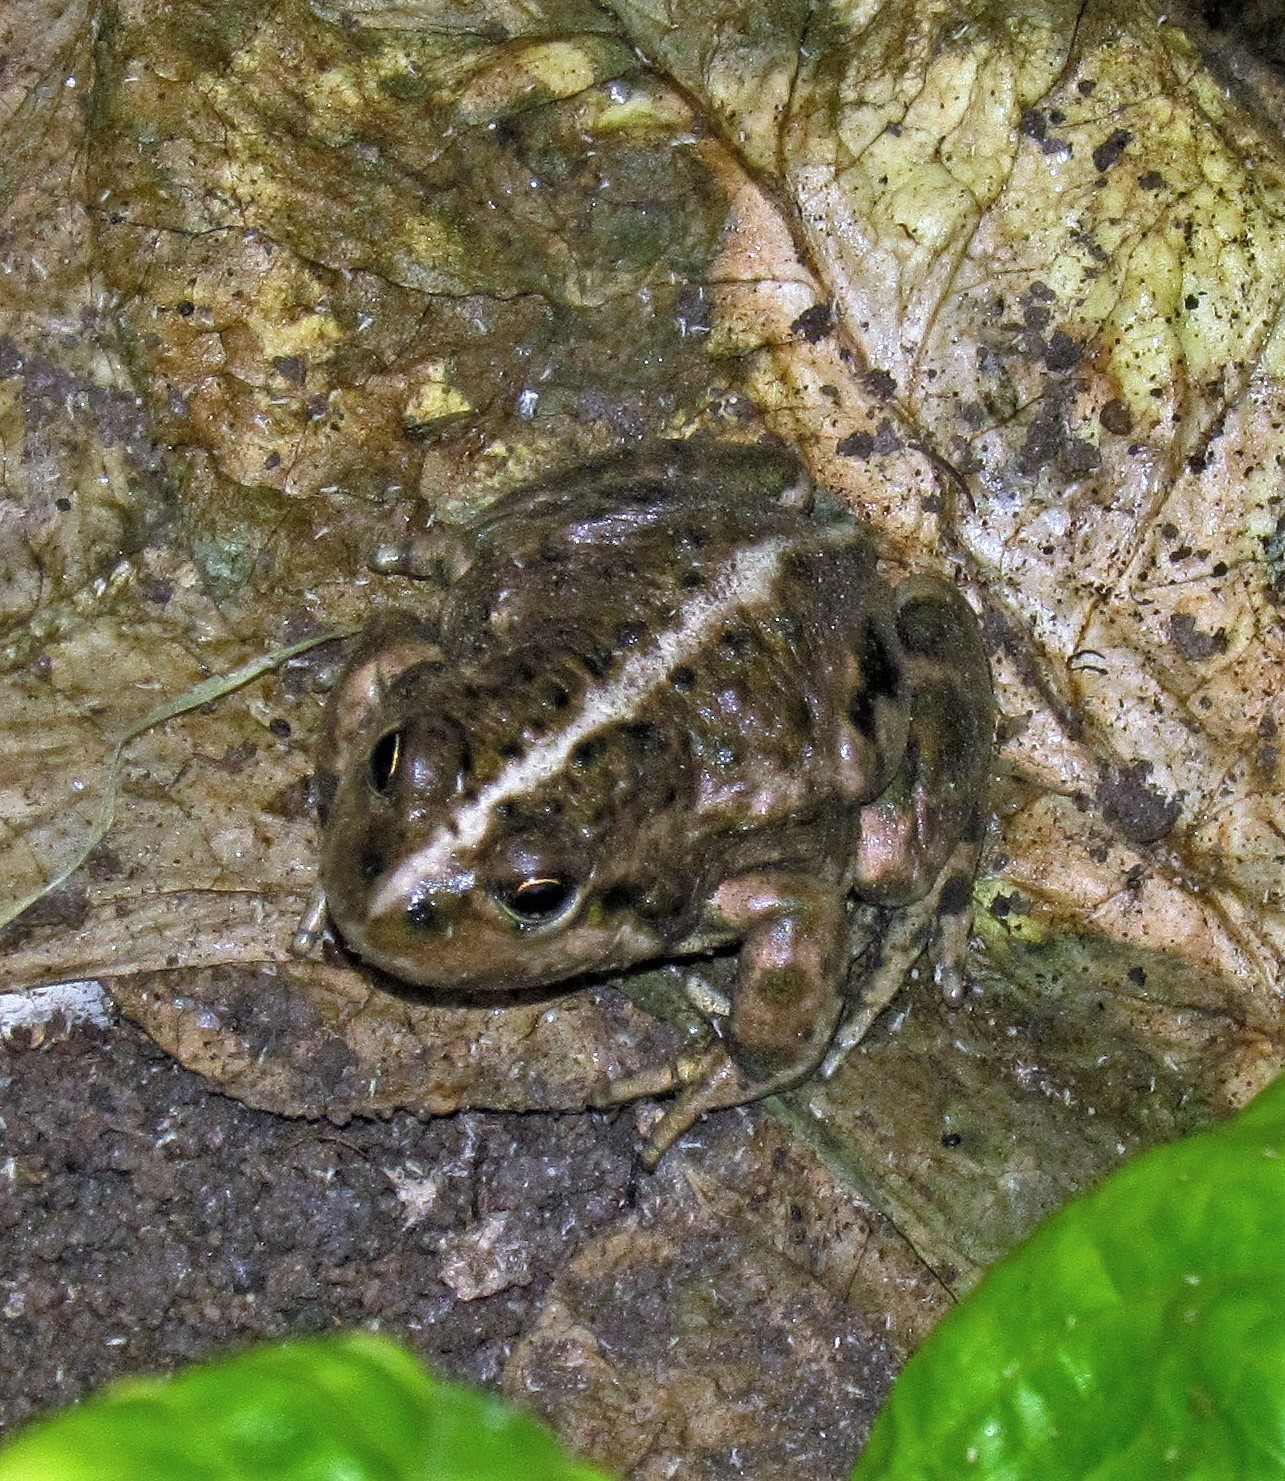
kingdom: Animalia
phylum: Chordata
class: Amphibia
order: Anura
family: Leptodactylidae
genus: Pleurodema
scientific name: Pleurodema bufoninum
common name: Large four-eyed frog
